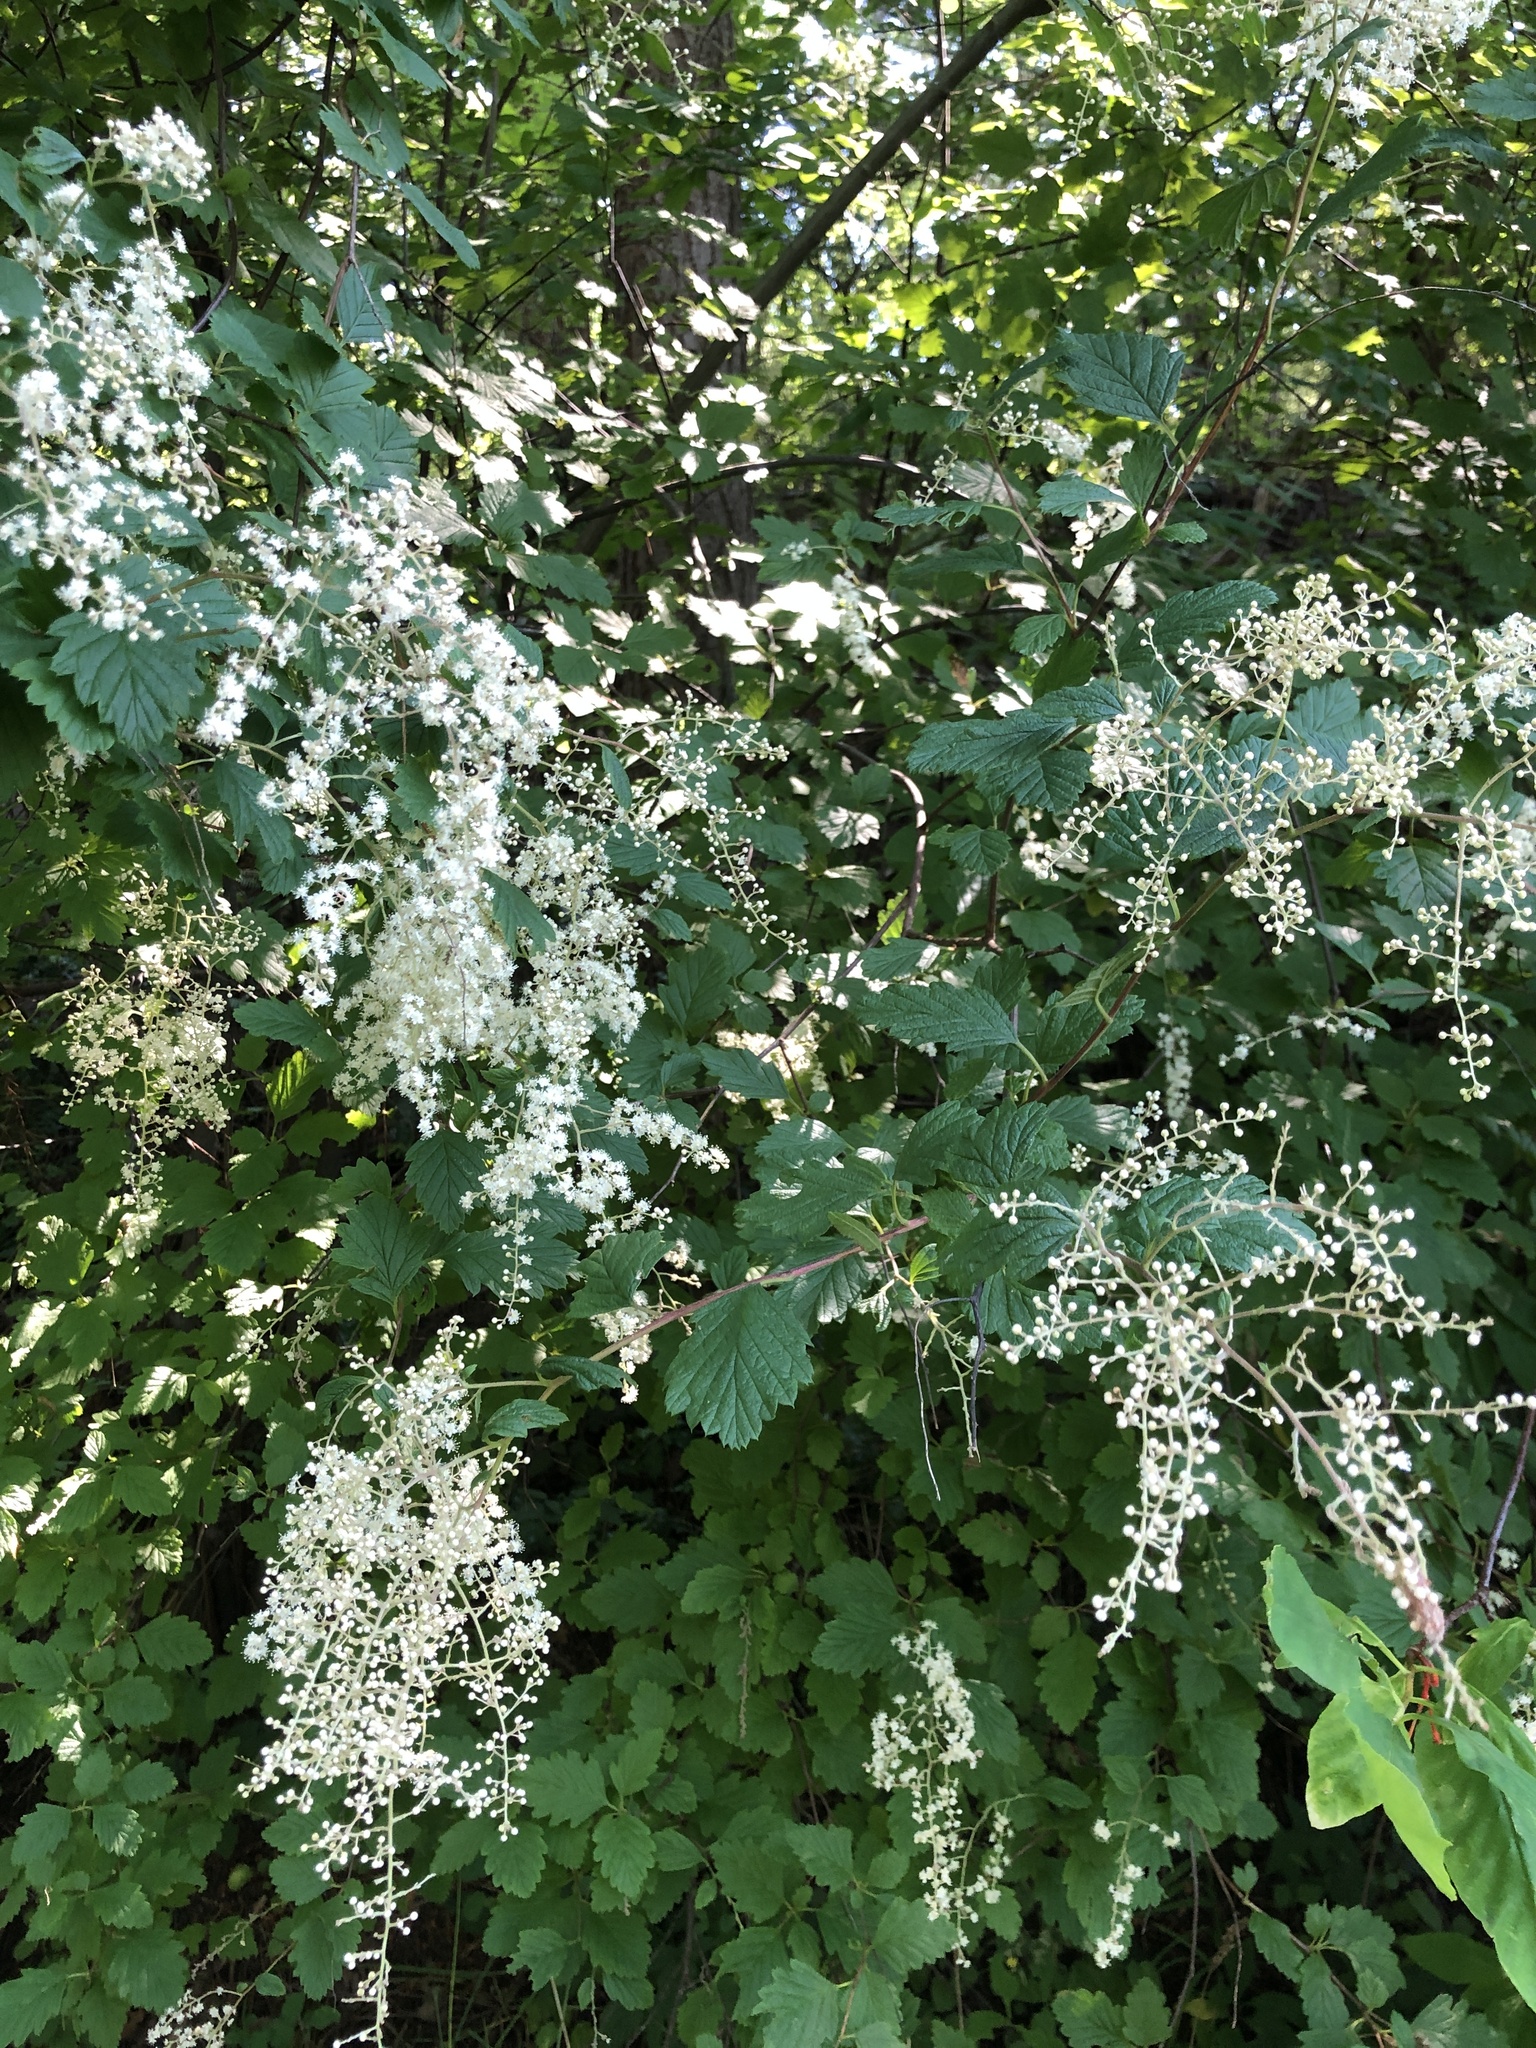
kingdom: Plantae
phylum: Tracheophyta
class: Magnoliopsida
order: Rosales
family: Rosaceae
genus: Holodiscus
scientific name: Holodiscus discolor
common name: Oceanspray
